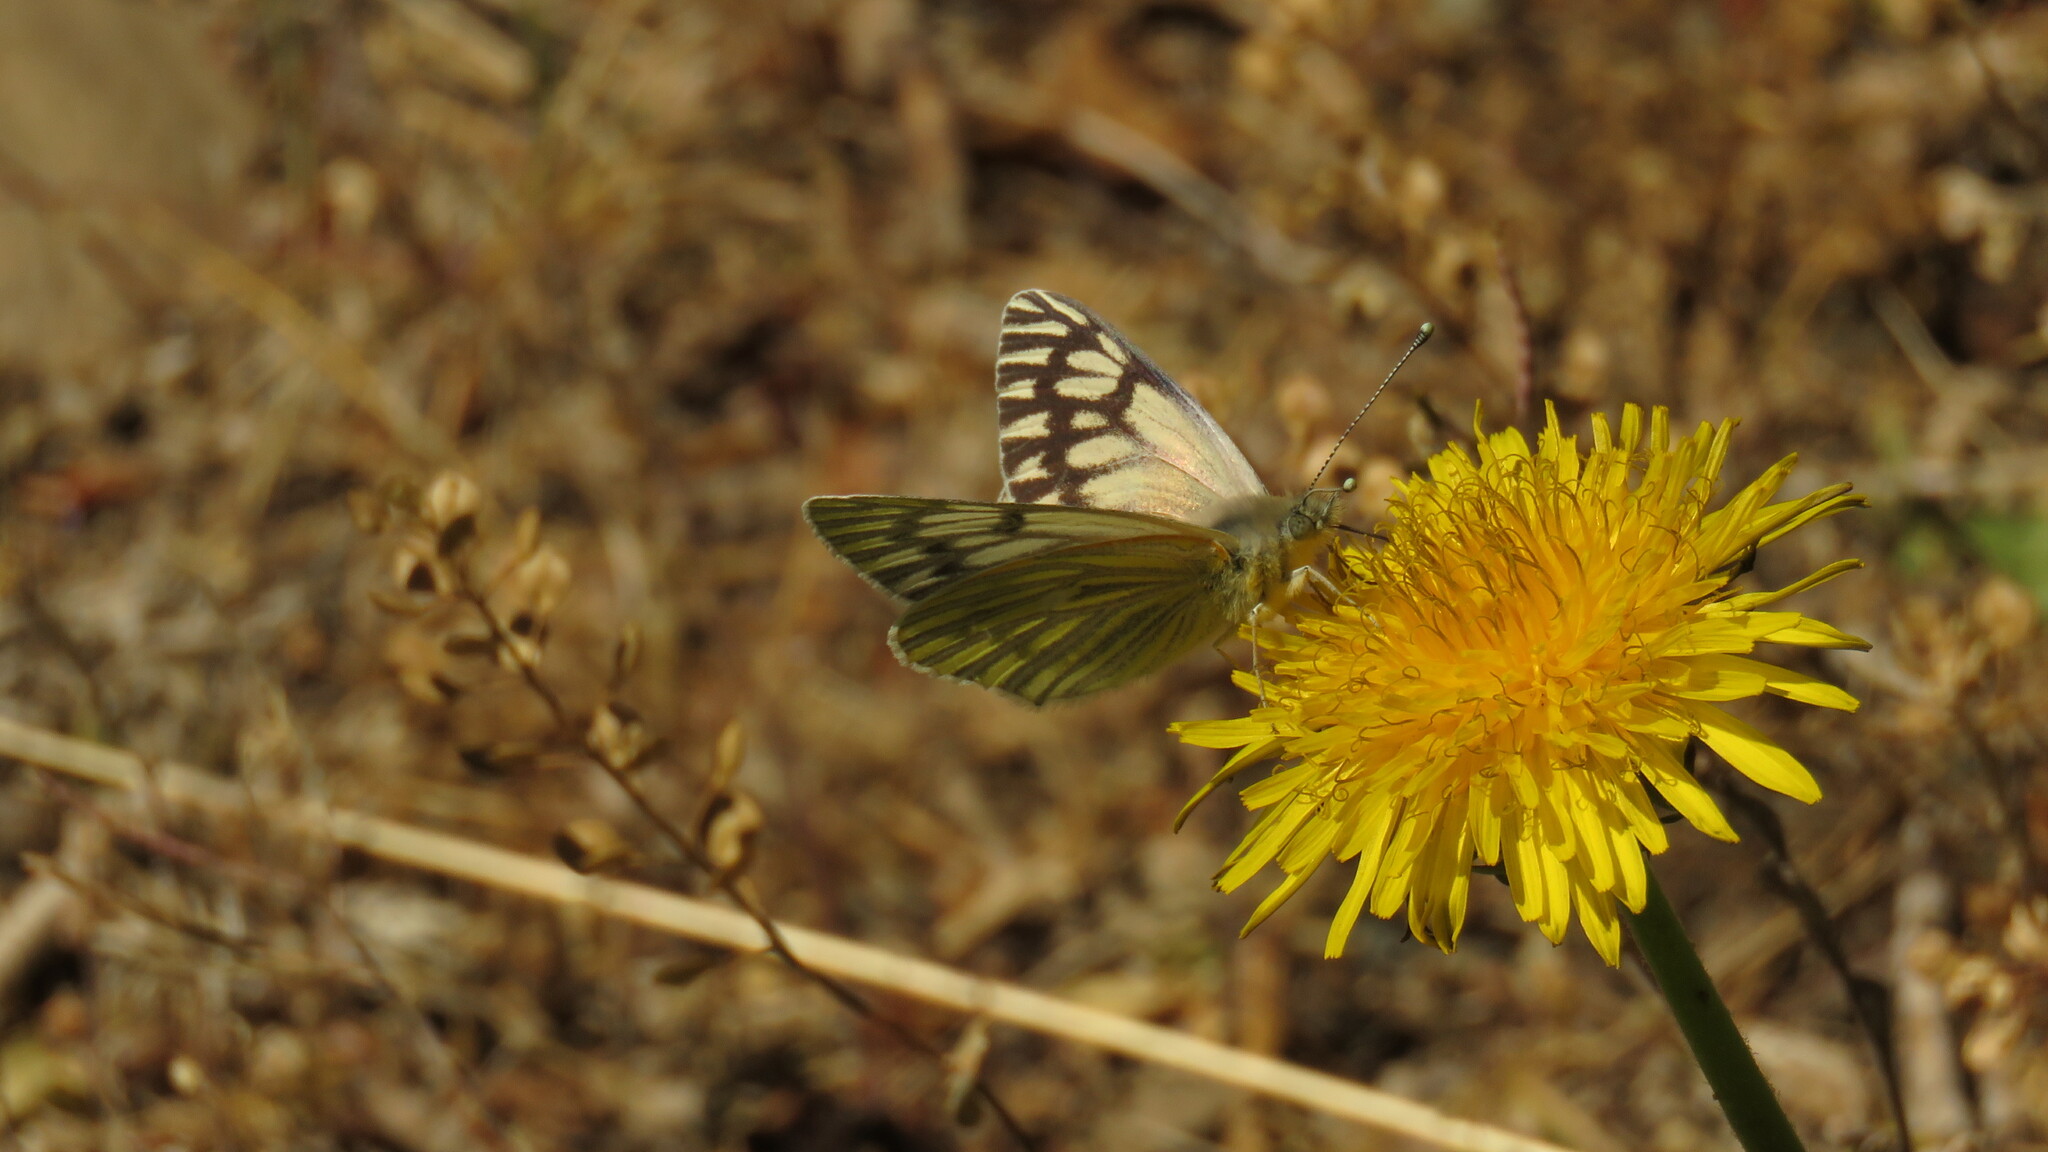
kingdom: Animalia
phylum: Arthropoda
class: Insecta
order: Lepidoptera
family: Pieridae
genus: Tatochila
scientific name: Tatochila mercedis
